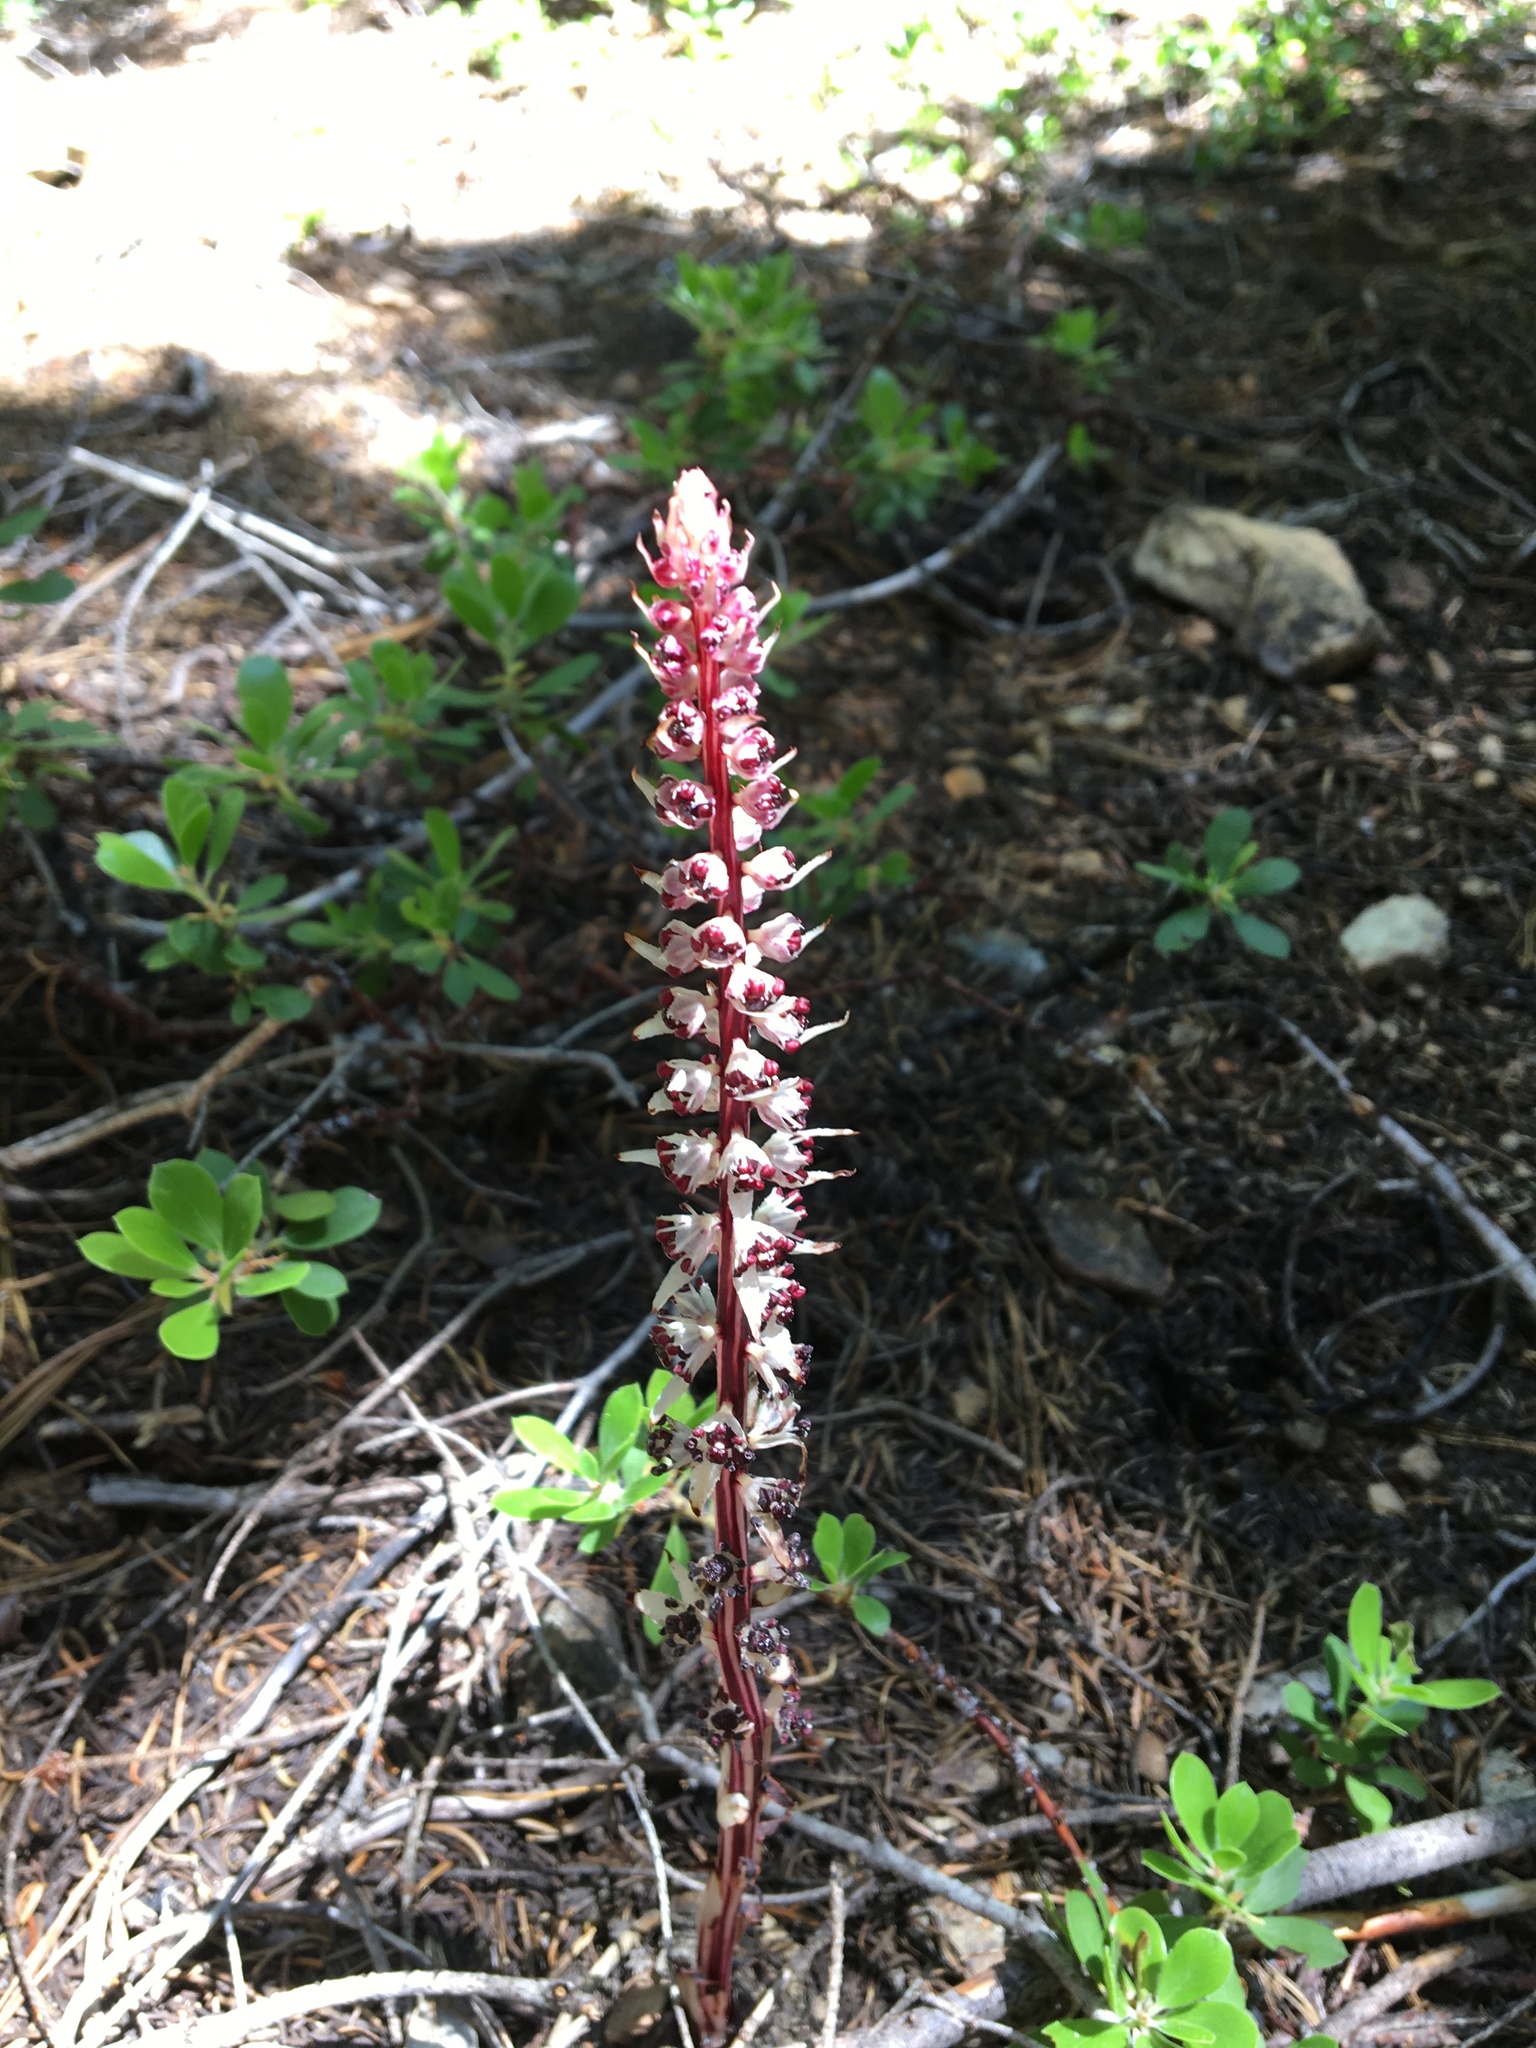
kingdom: Plantae
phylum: Tracheophyta
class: Magnoliopsida
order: Ericales
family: Ericaceae
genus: Allotropa
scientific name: Allotropa virgata
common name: Candy-striped allotropa
